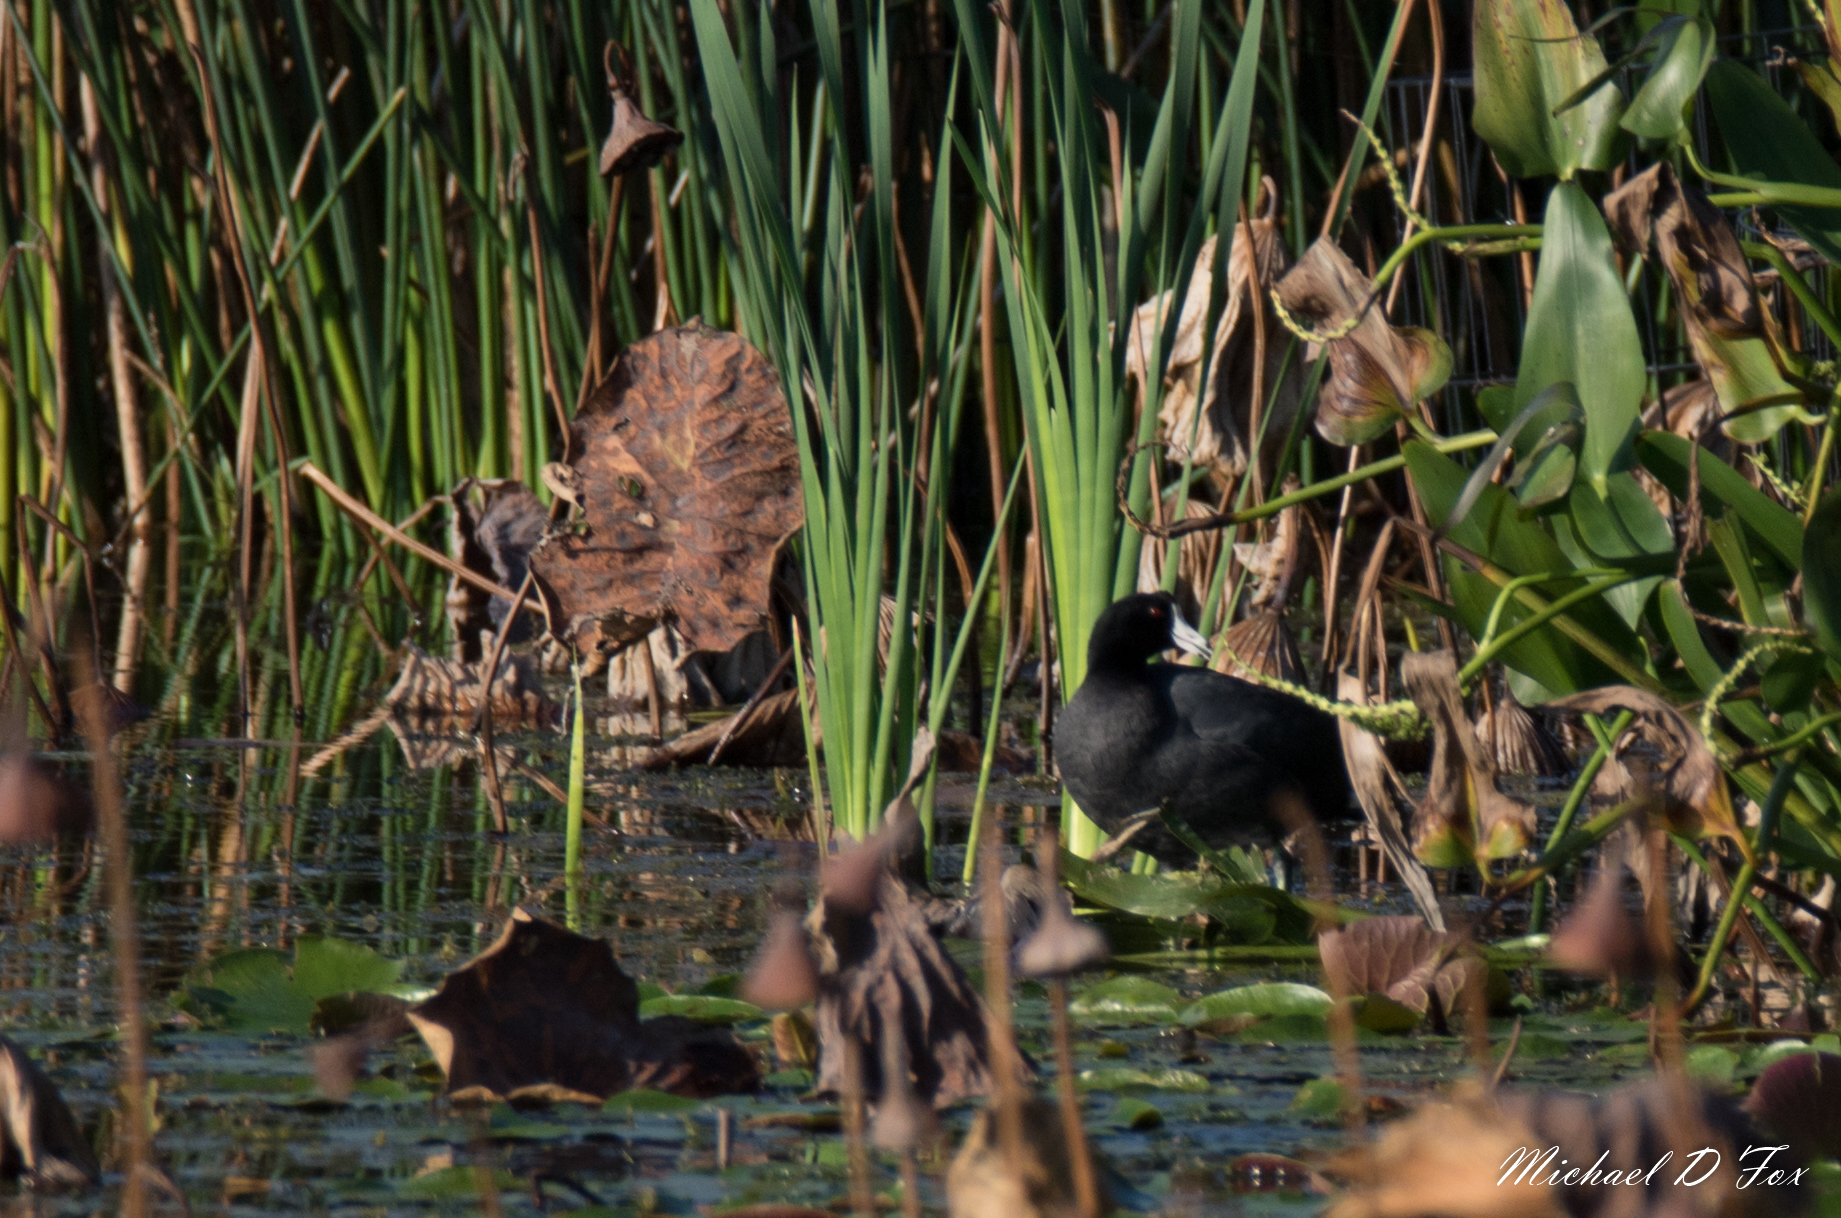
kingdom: Animalia
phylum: Chordata
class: Aves
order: Gruiformes
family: Rallidae
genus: Fulica
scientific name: Fulica americana
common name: American coot
